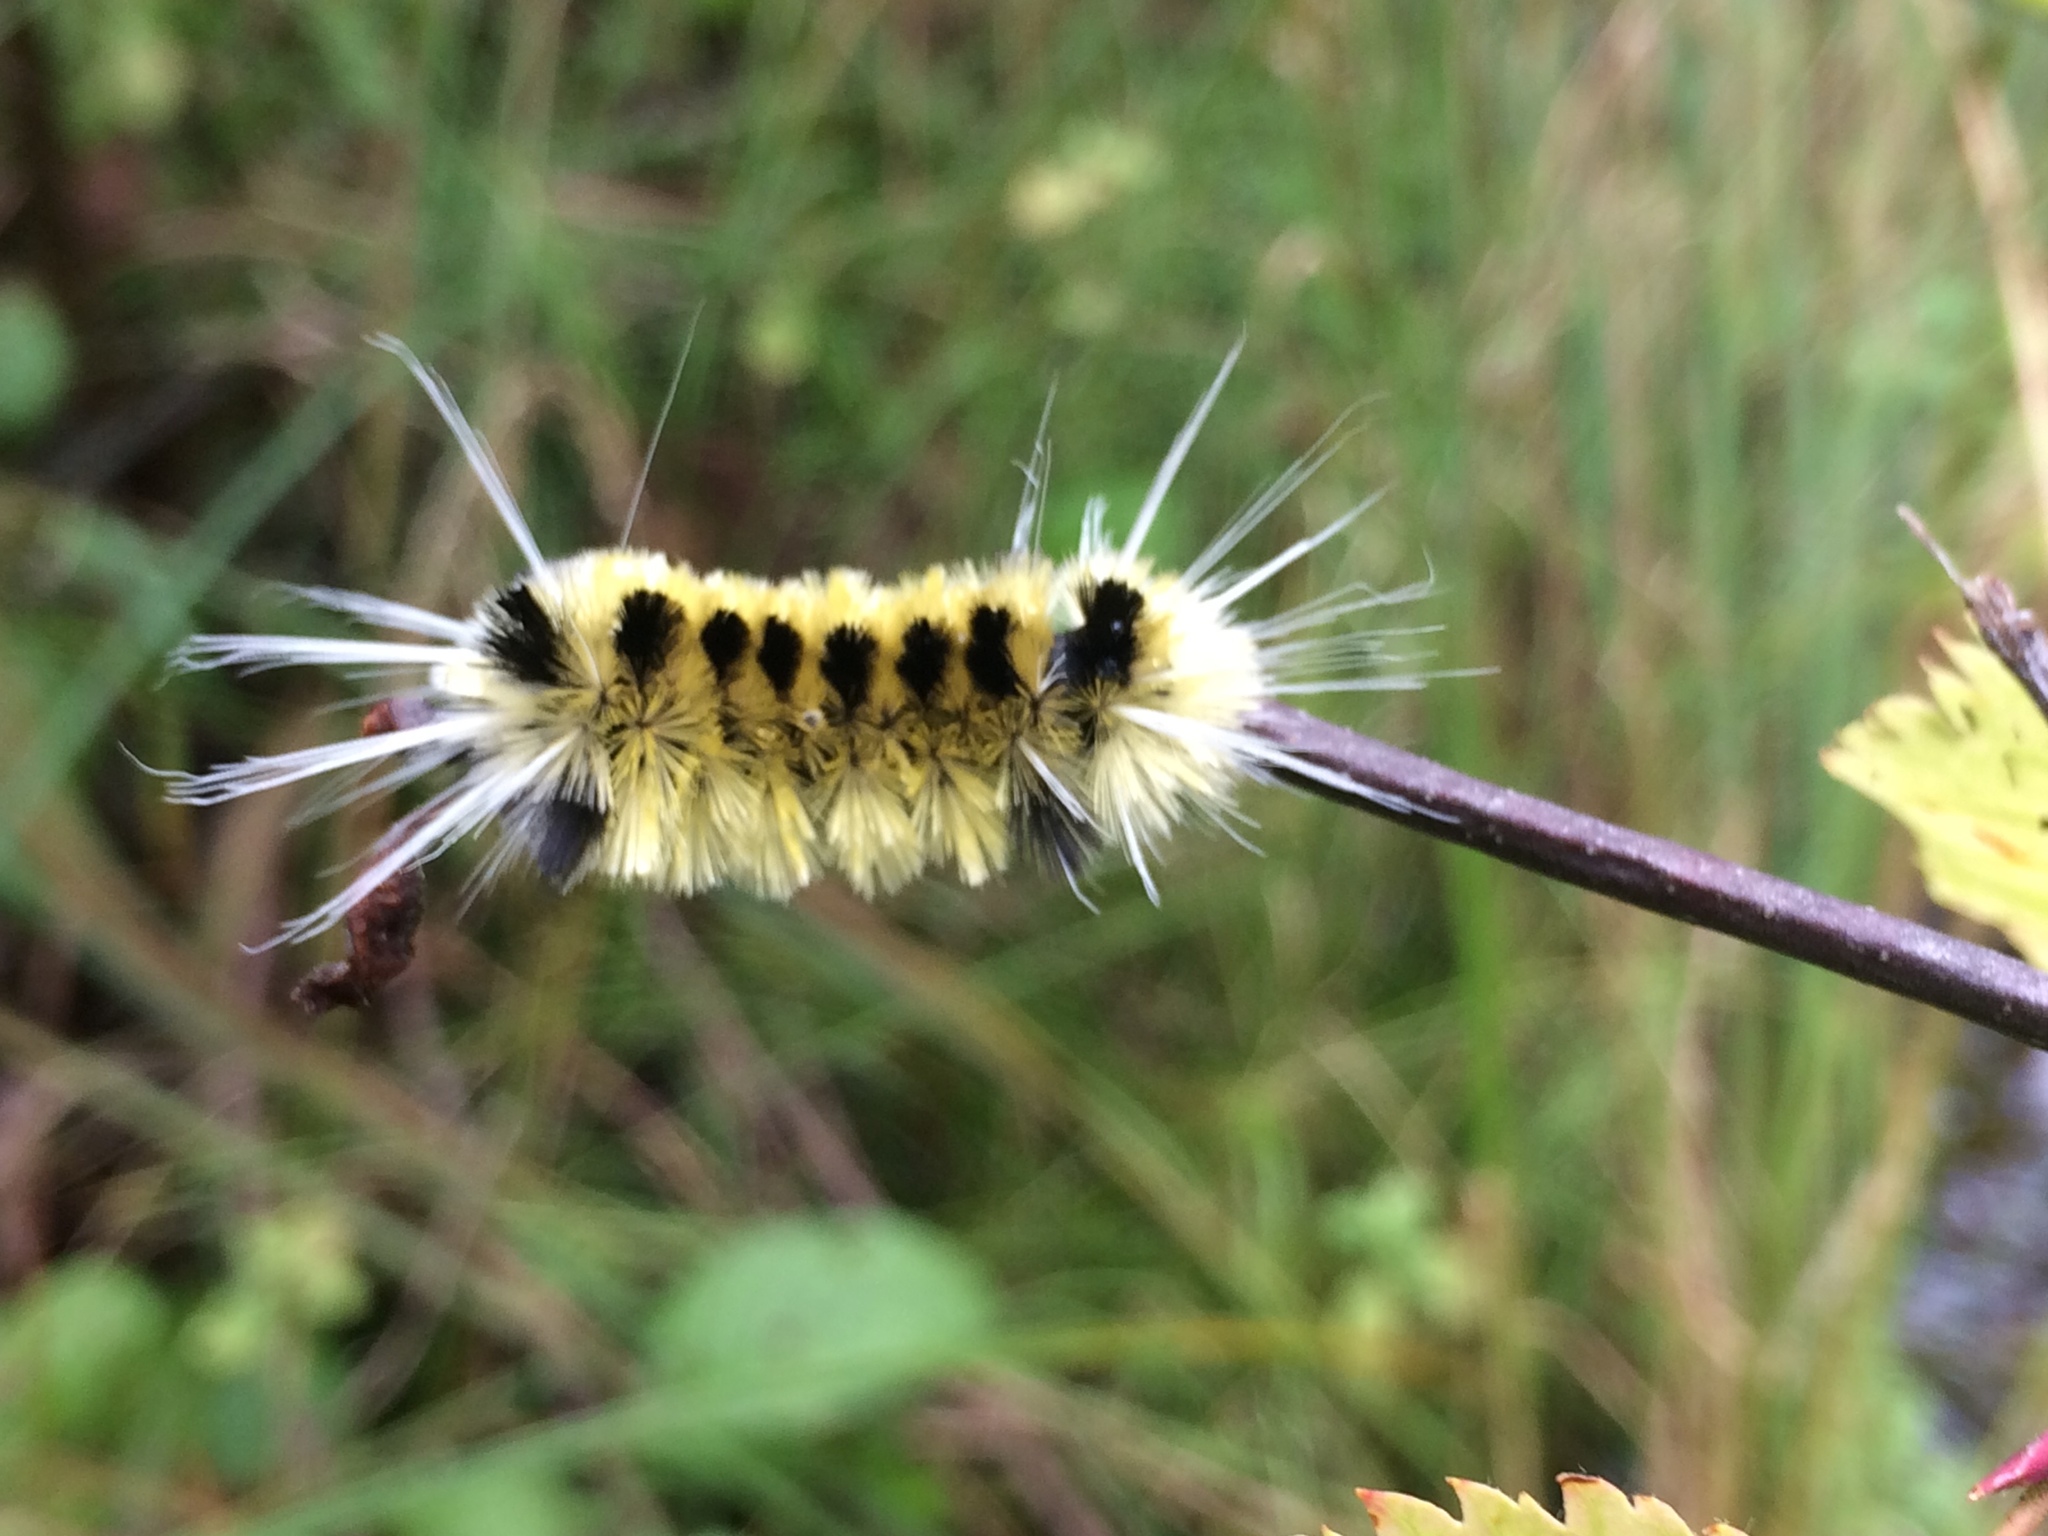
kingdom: Animalia
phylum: Arthropoda
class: Insecta
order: Lepidoptera
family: Erebidae
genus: Lophocampa
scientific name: Lophocampa maculata
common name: Spotted tussock moth
